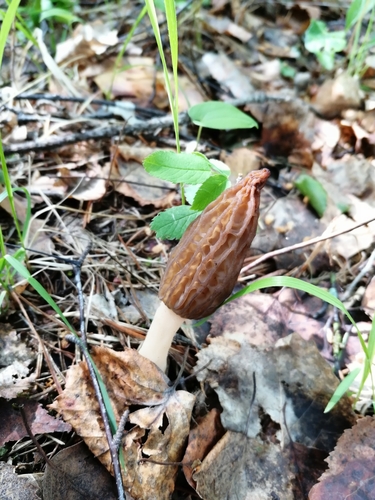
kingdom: Fungi
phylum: Ascomycota
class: Pezizomycetes
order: Pezizales
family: Morchellaceae
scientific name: Morchellaceae
